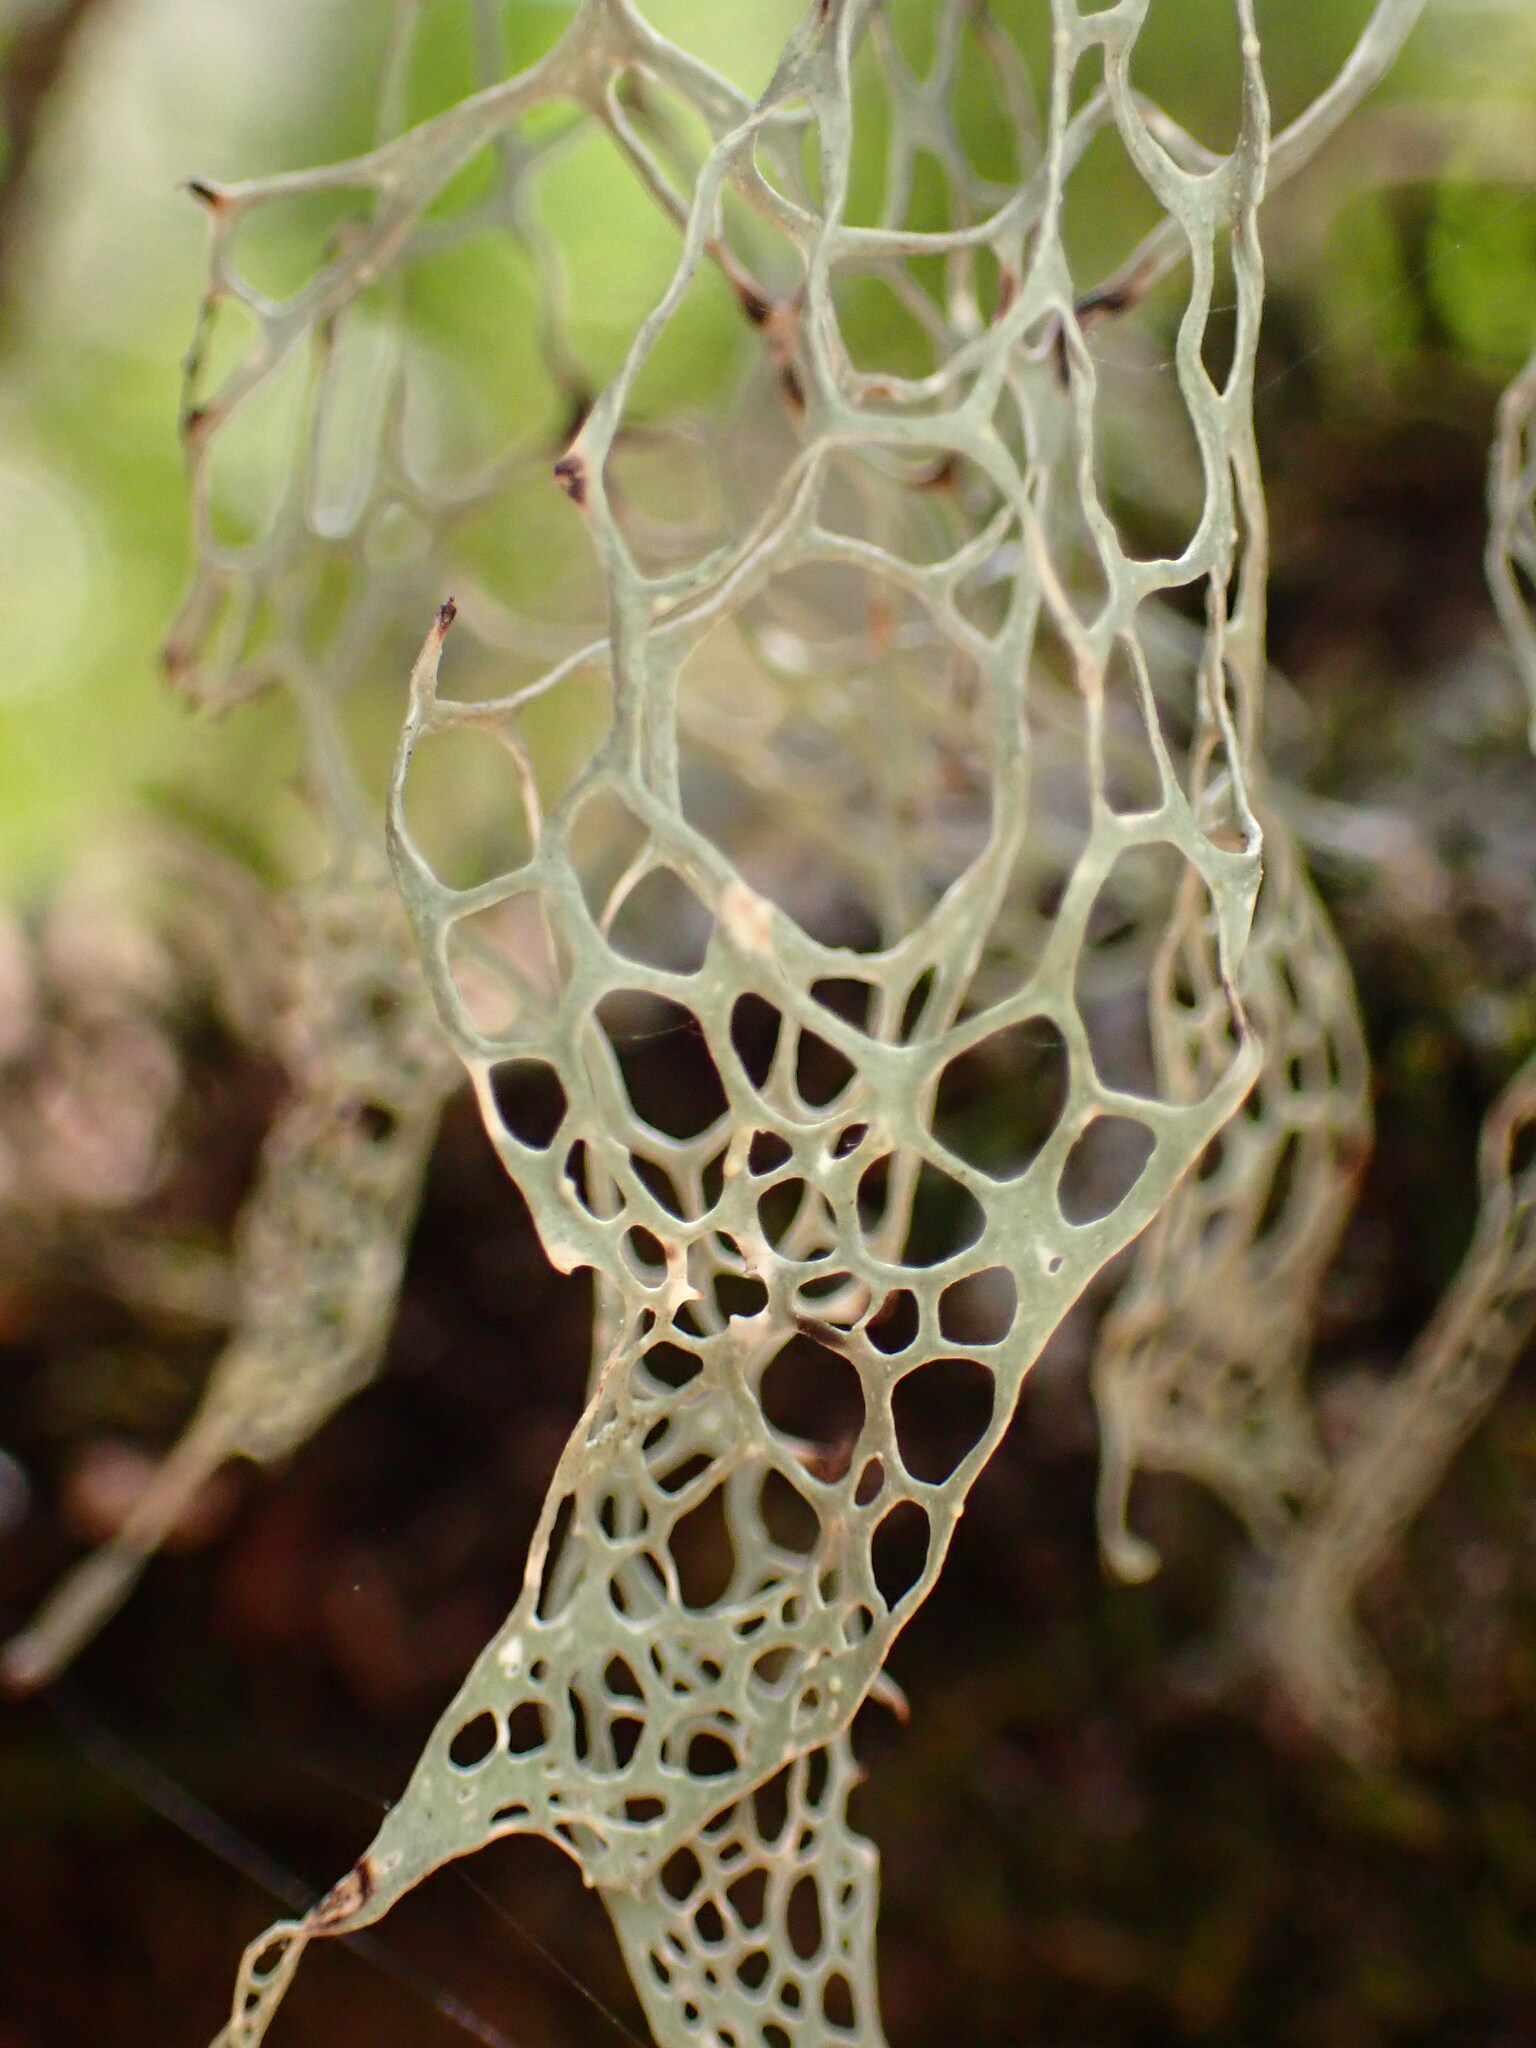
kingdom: Fungi
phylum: Ascomycota
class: Lecanoromycetes
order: Lecanorales
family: Ramalinaceae
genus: Ramalina
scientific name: Ramalina menziesii
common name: Lace lichen
